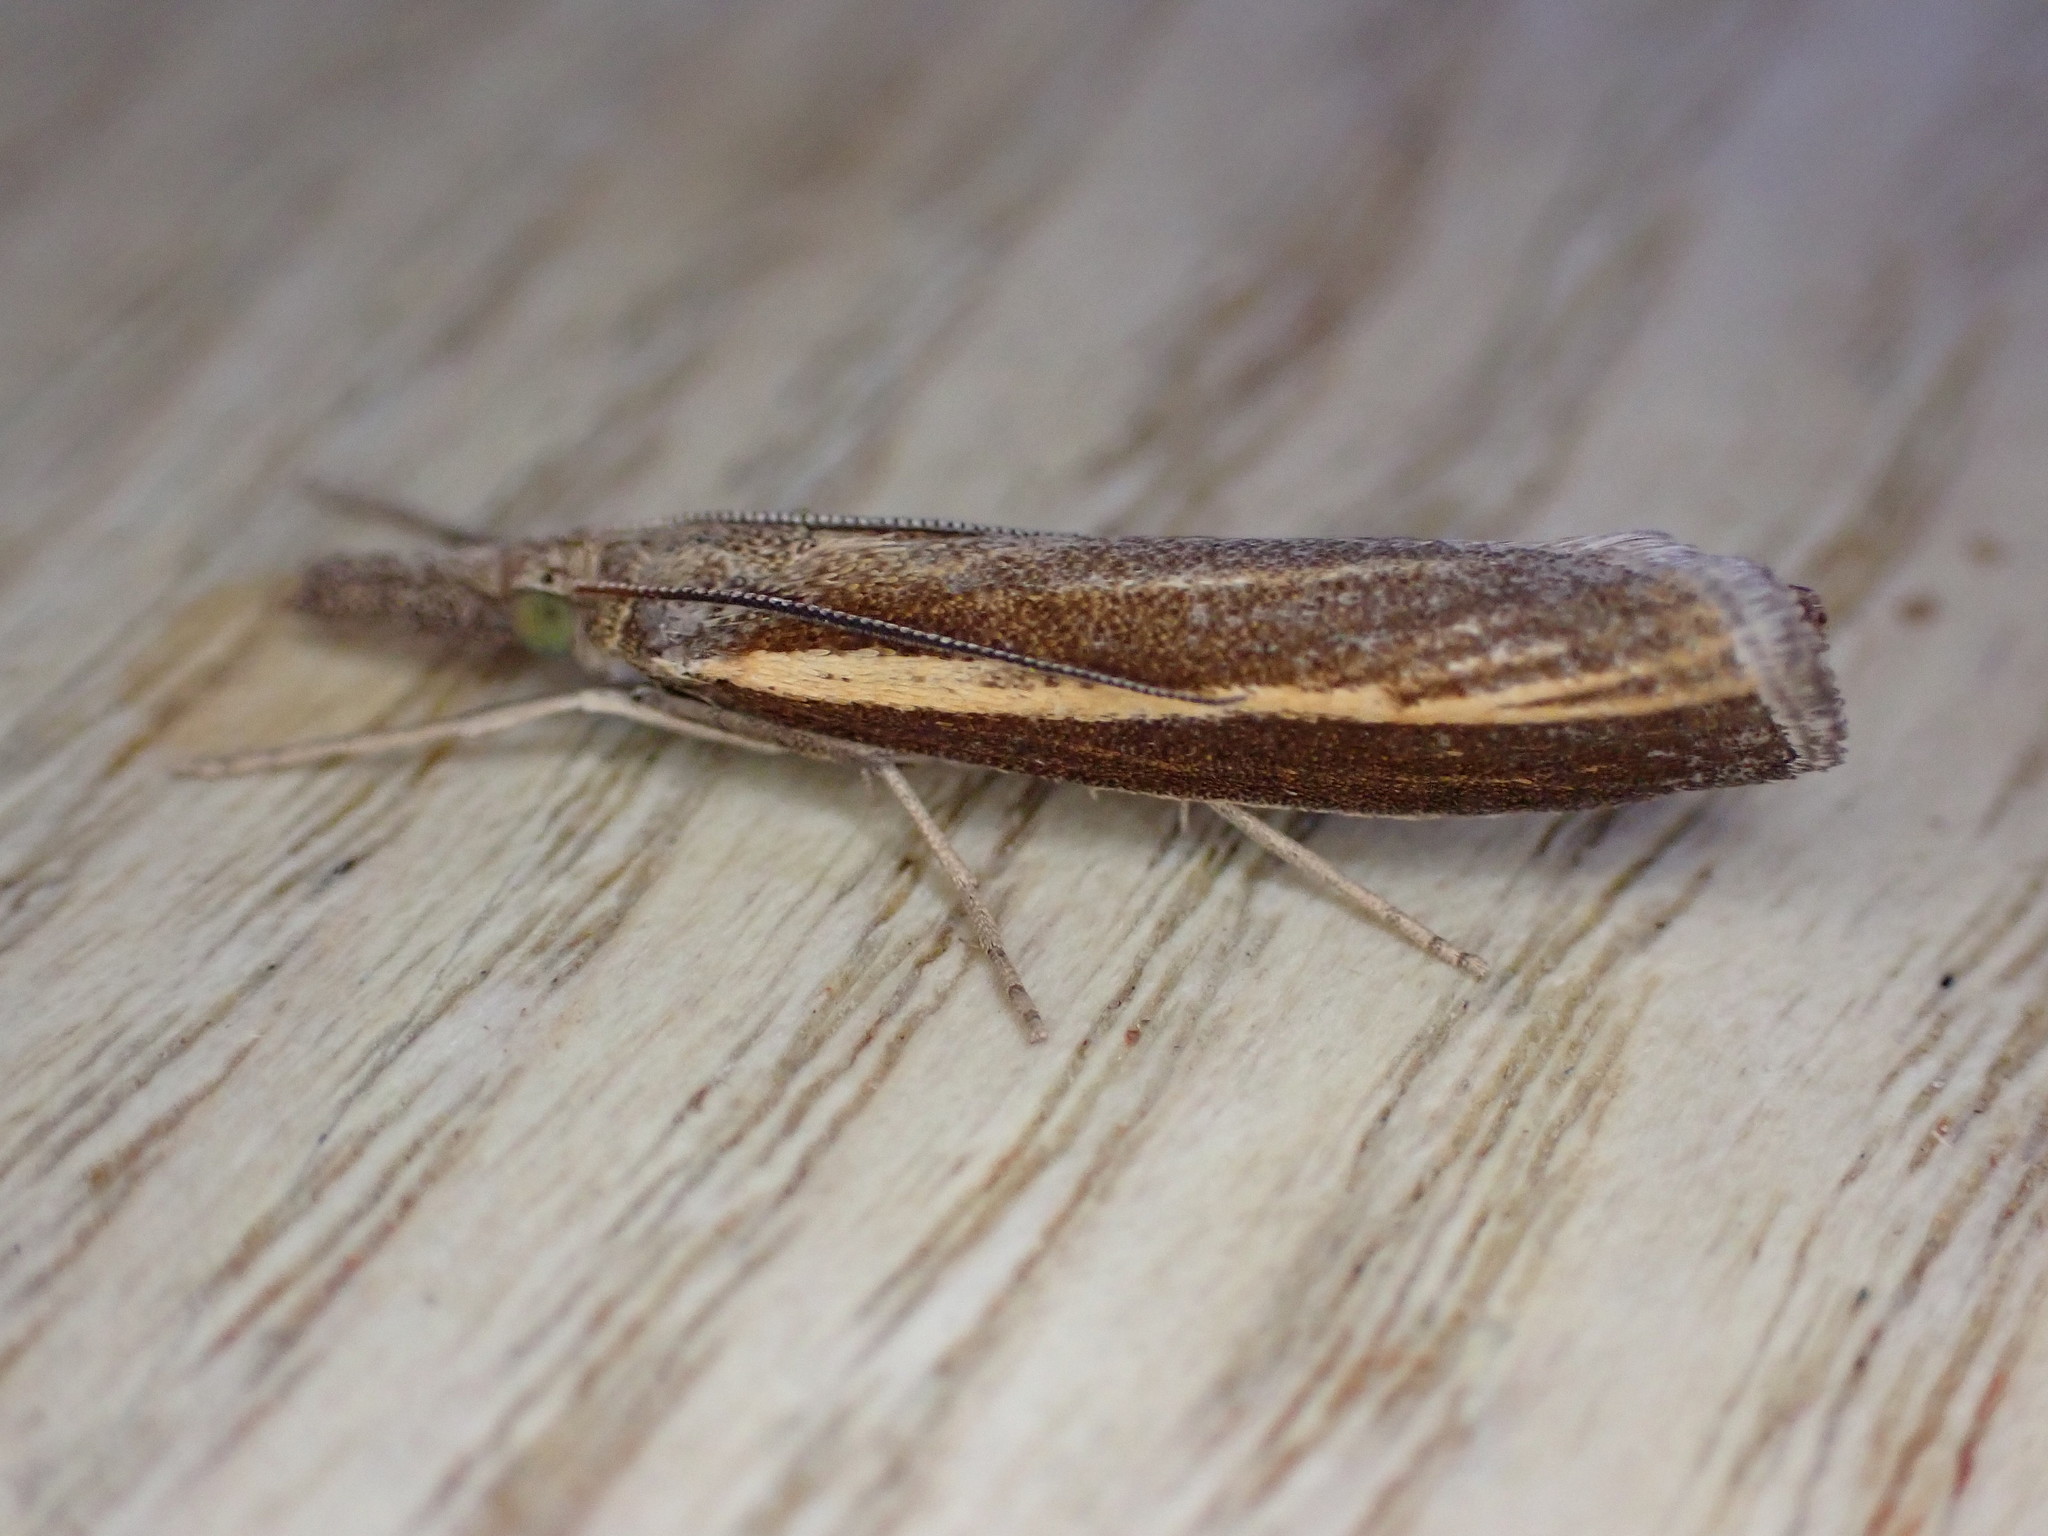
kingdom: Animalia
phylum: Arthropoda
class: Insecta
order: Lepidoptera
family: Crambidae
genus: Agriphila
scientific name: Agriphila tristellus
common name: Common grass-veneer
